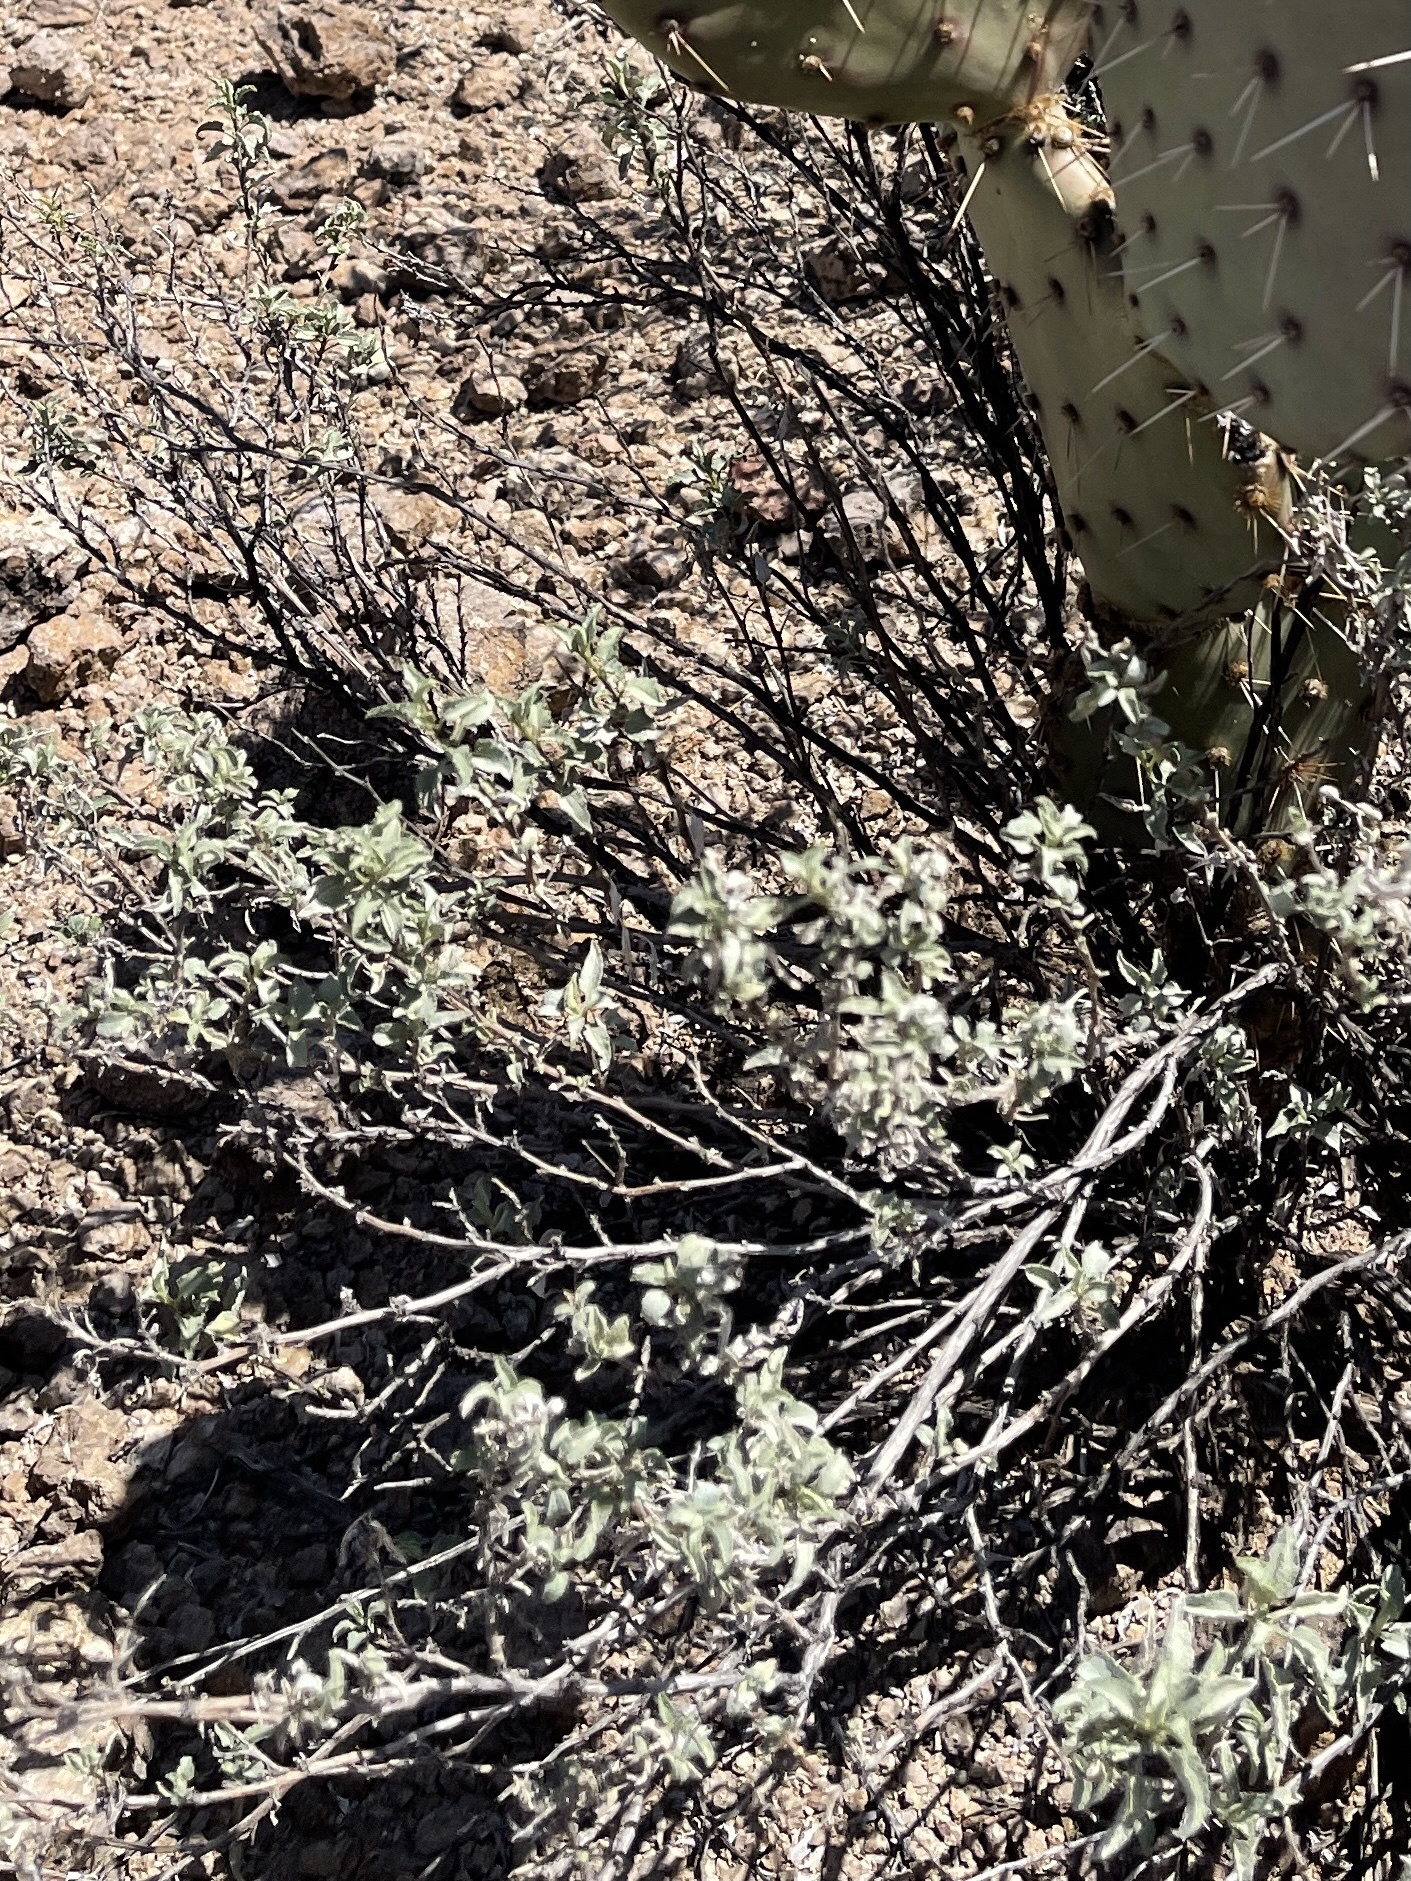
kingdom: Plantae
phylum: Tracheophyta
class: Magnoliopsida
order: Asterales
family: Asteraceae
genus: Ambrosia
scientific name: Ambrosia deltoidea
